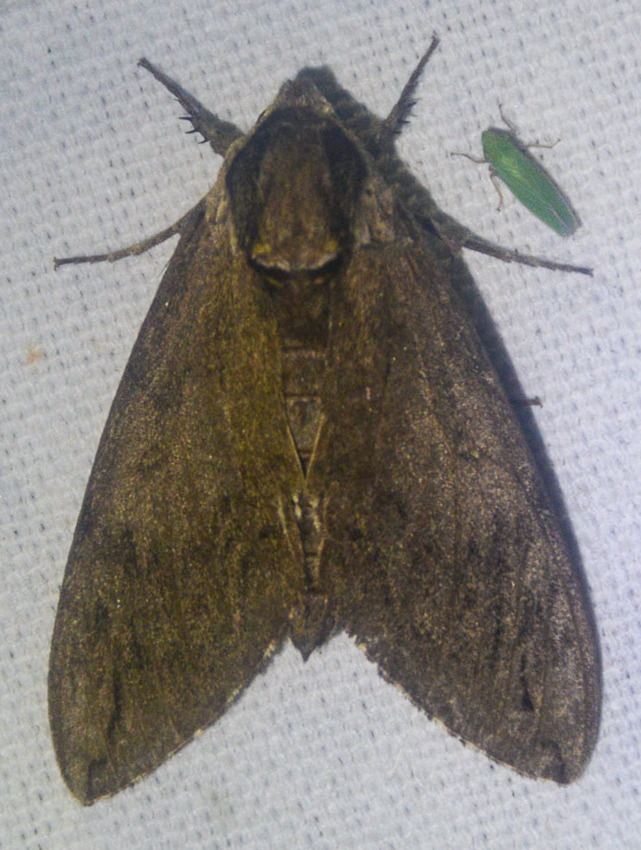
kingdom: Animalia
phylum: Arthropoda
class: Insecta
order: Lepidoptera
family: Sphingidae
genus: Ceratomia
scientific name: Ceratomia catalpae
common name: Catalpa hornworm
